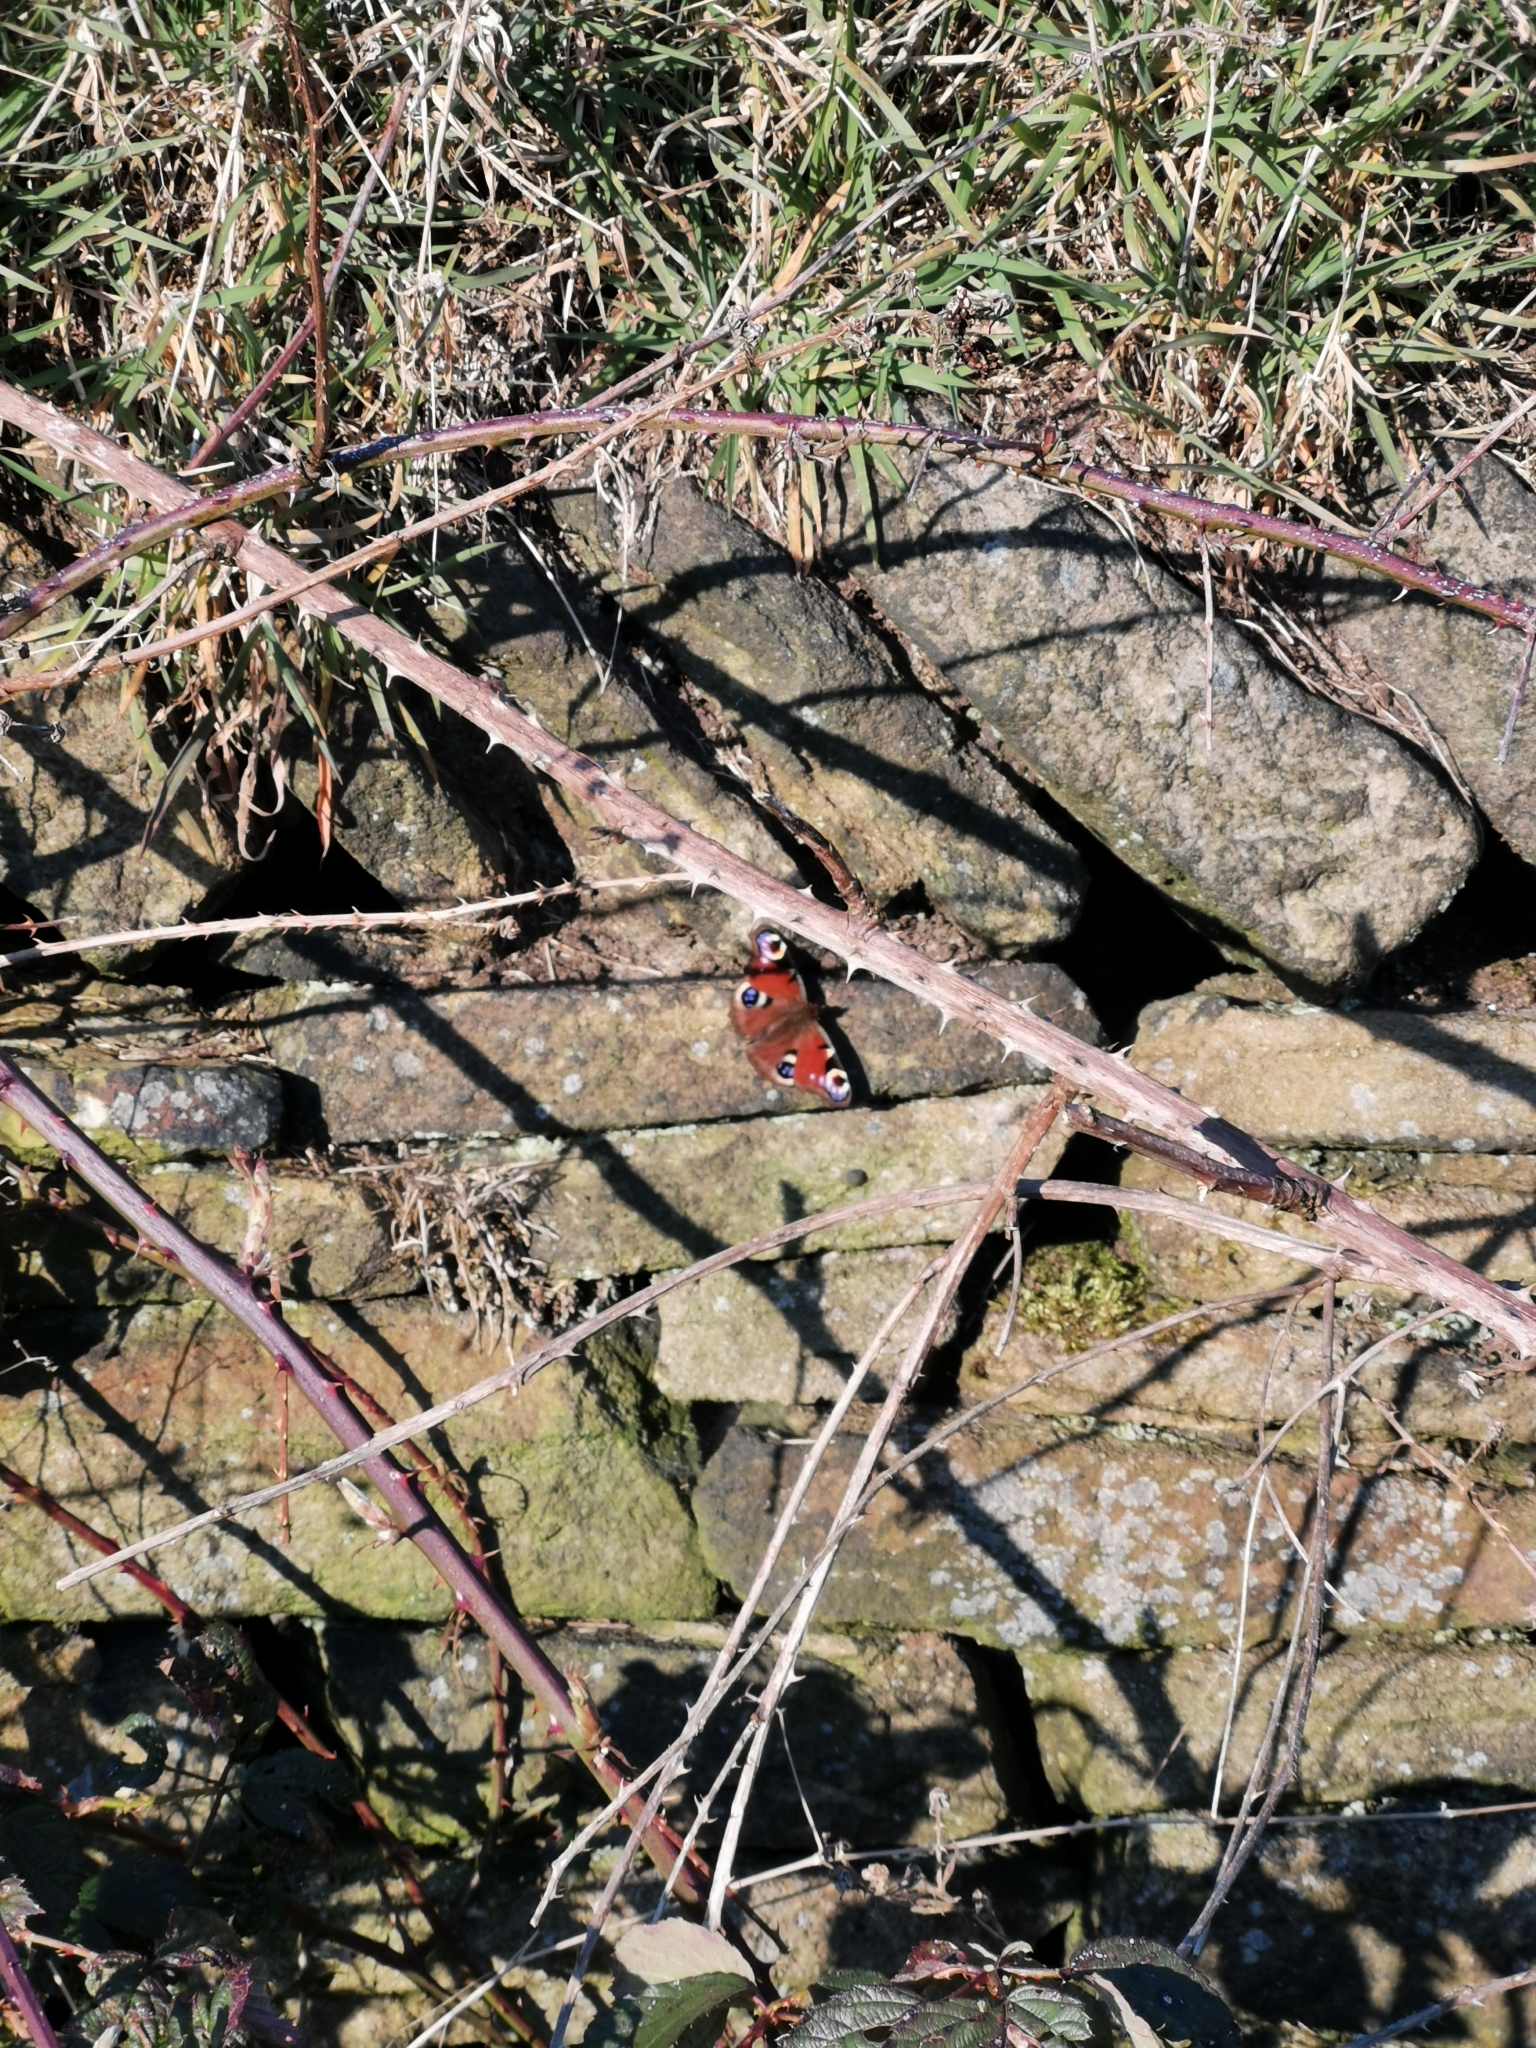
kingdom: Animalia
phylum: Arthropoda
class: Insecta
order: Lepidoptera
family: Nymphalidae
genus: Aglais
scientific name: Aglais io
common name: Peacock
